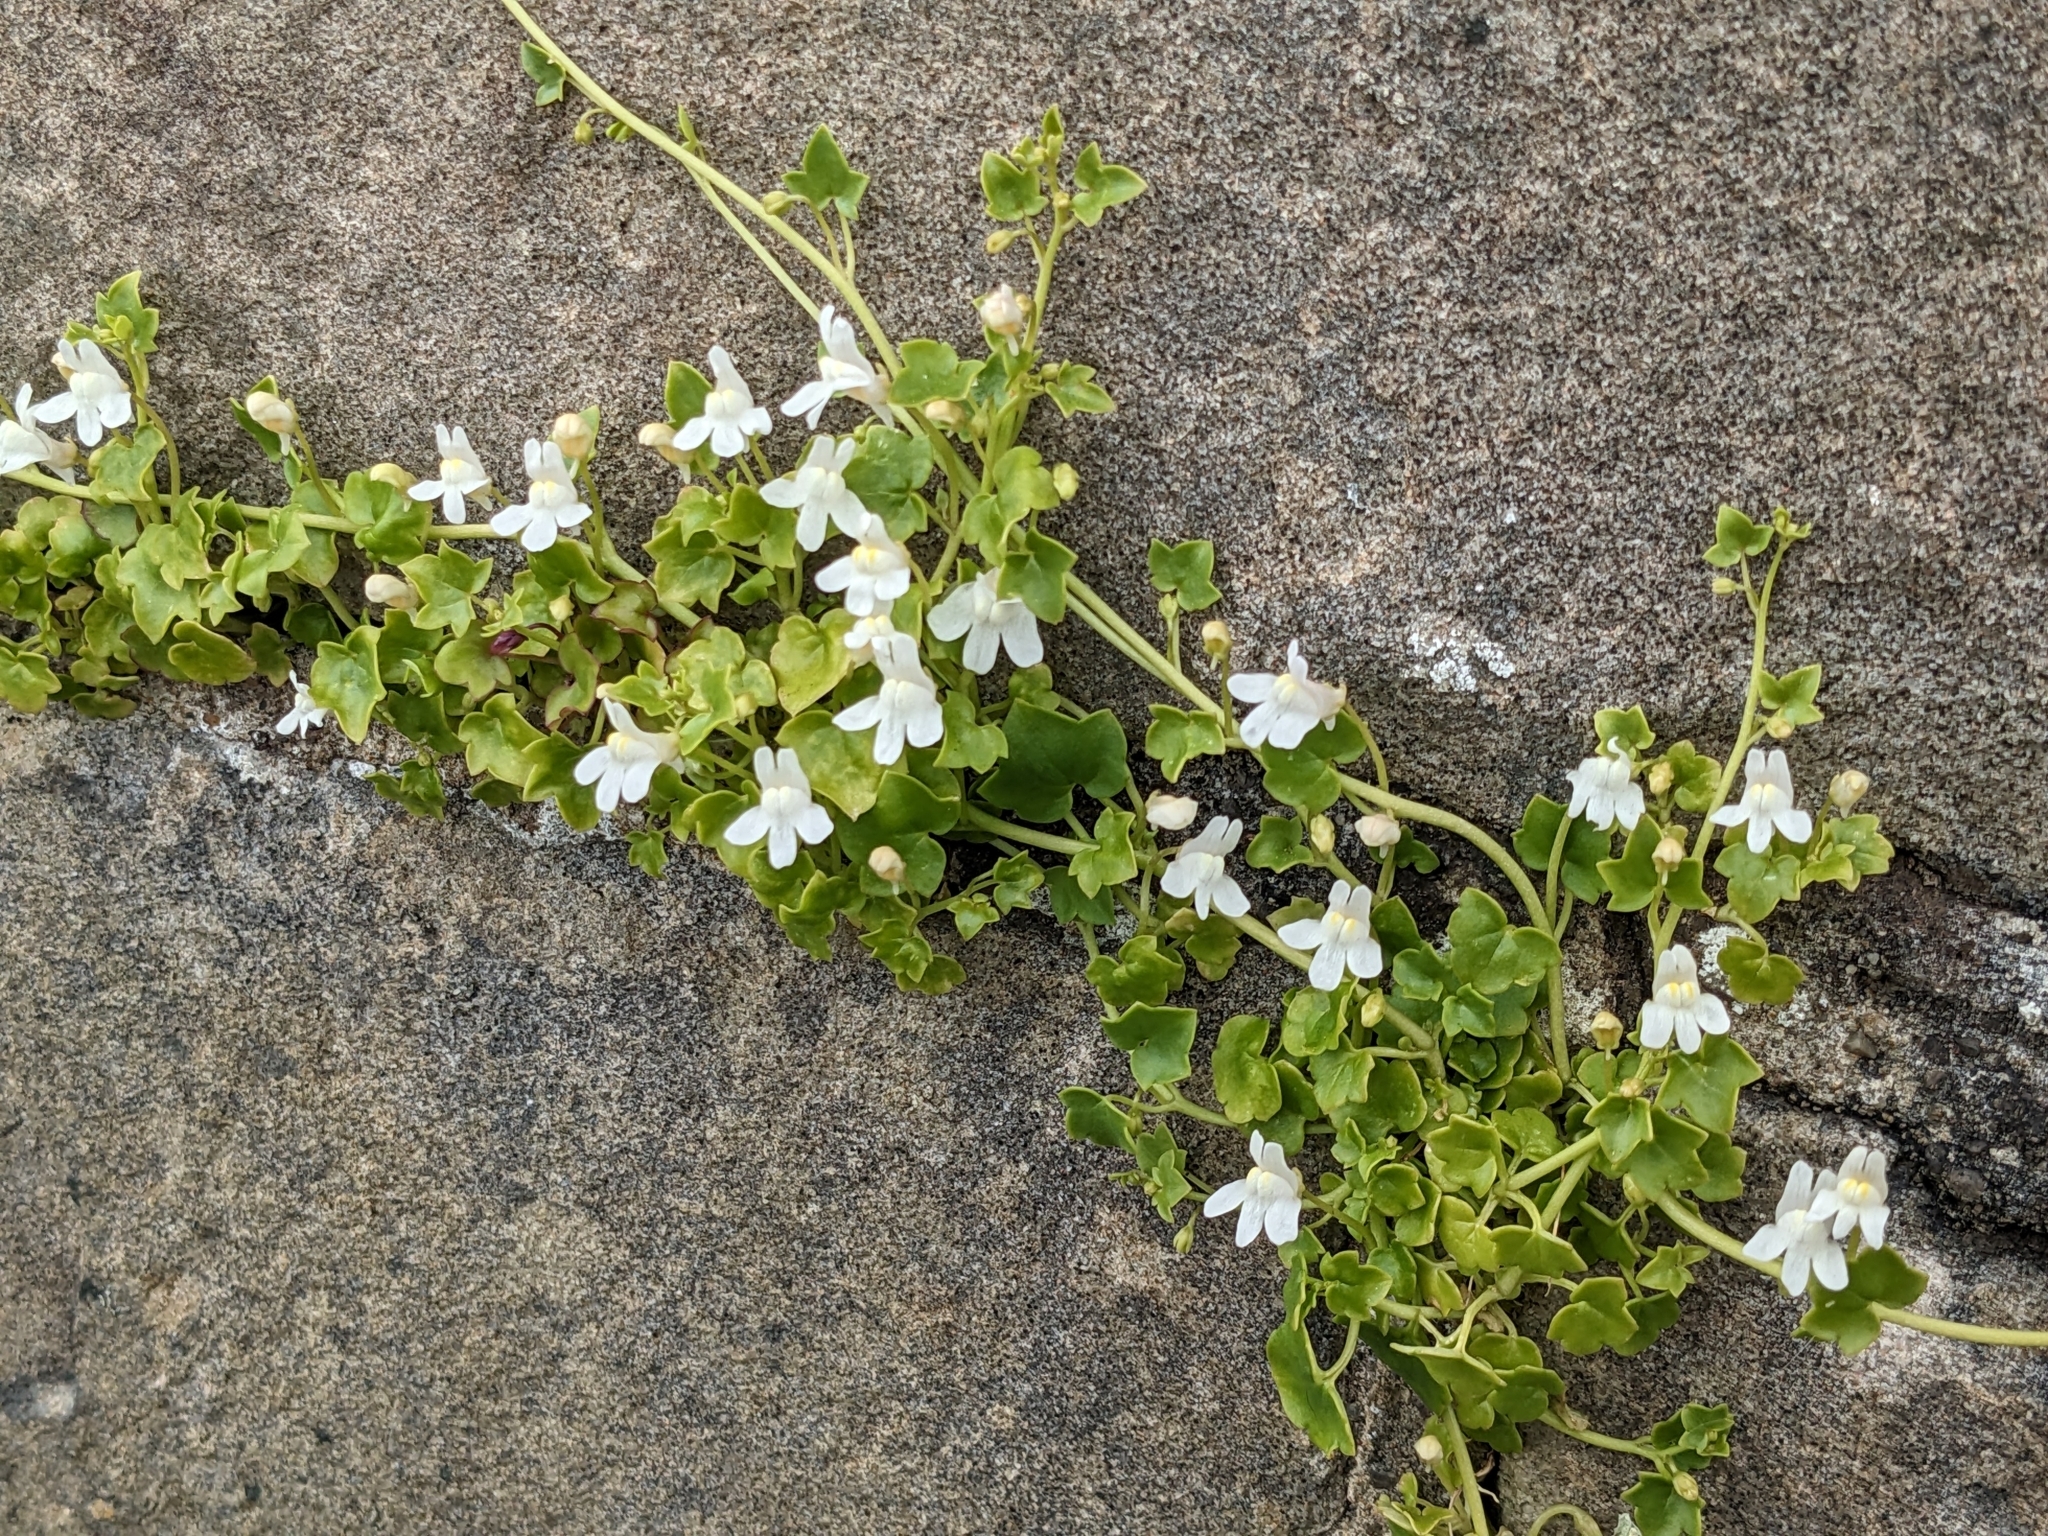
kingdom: Plantae
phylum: Tracheophyta
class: Magnoliopsida
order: Lamiales
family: Plantaginaceae
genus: Cymbalaria
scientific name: Cymbalaria muralis
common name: Ivy-leaved toadflax
